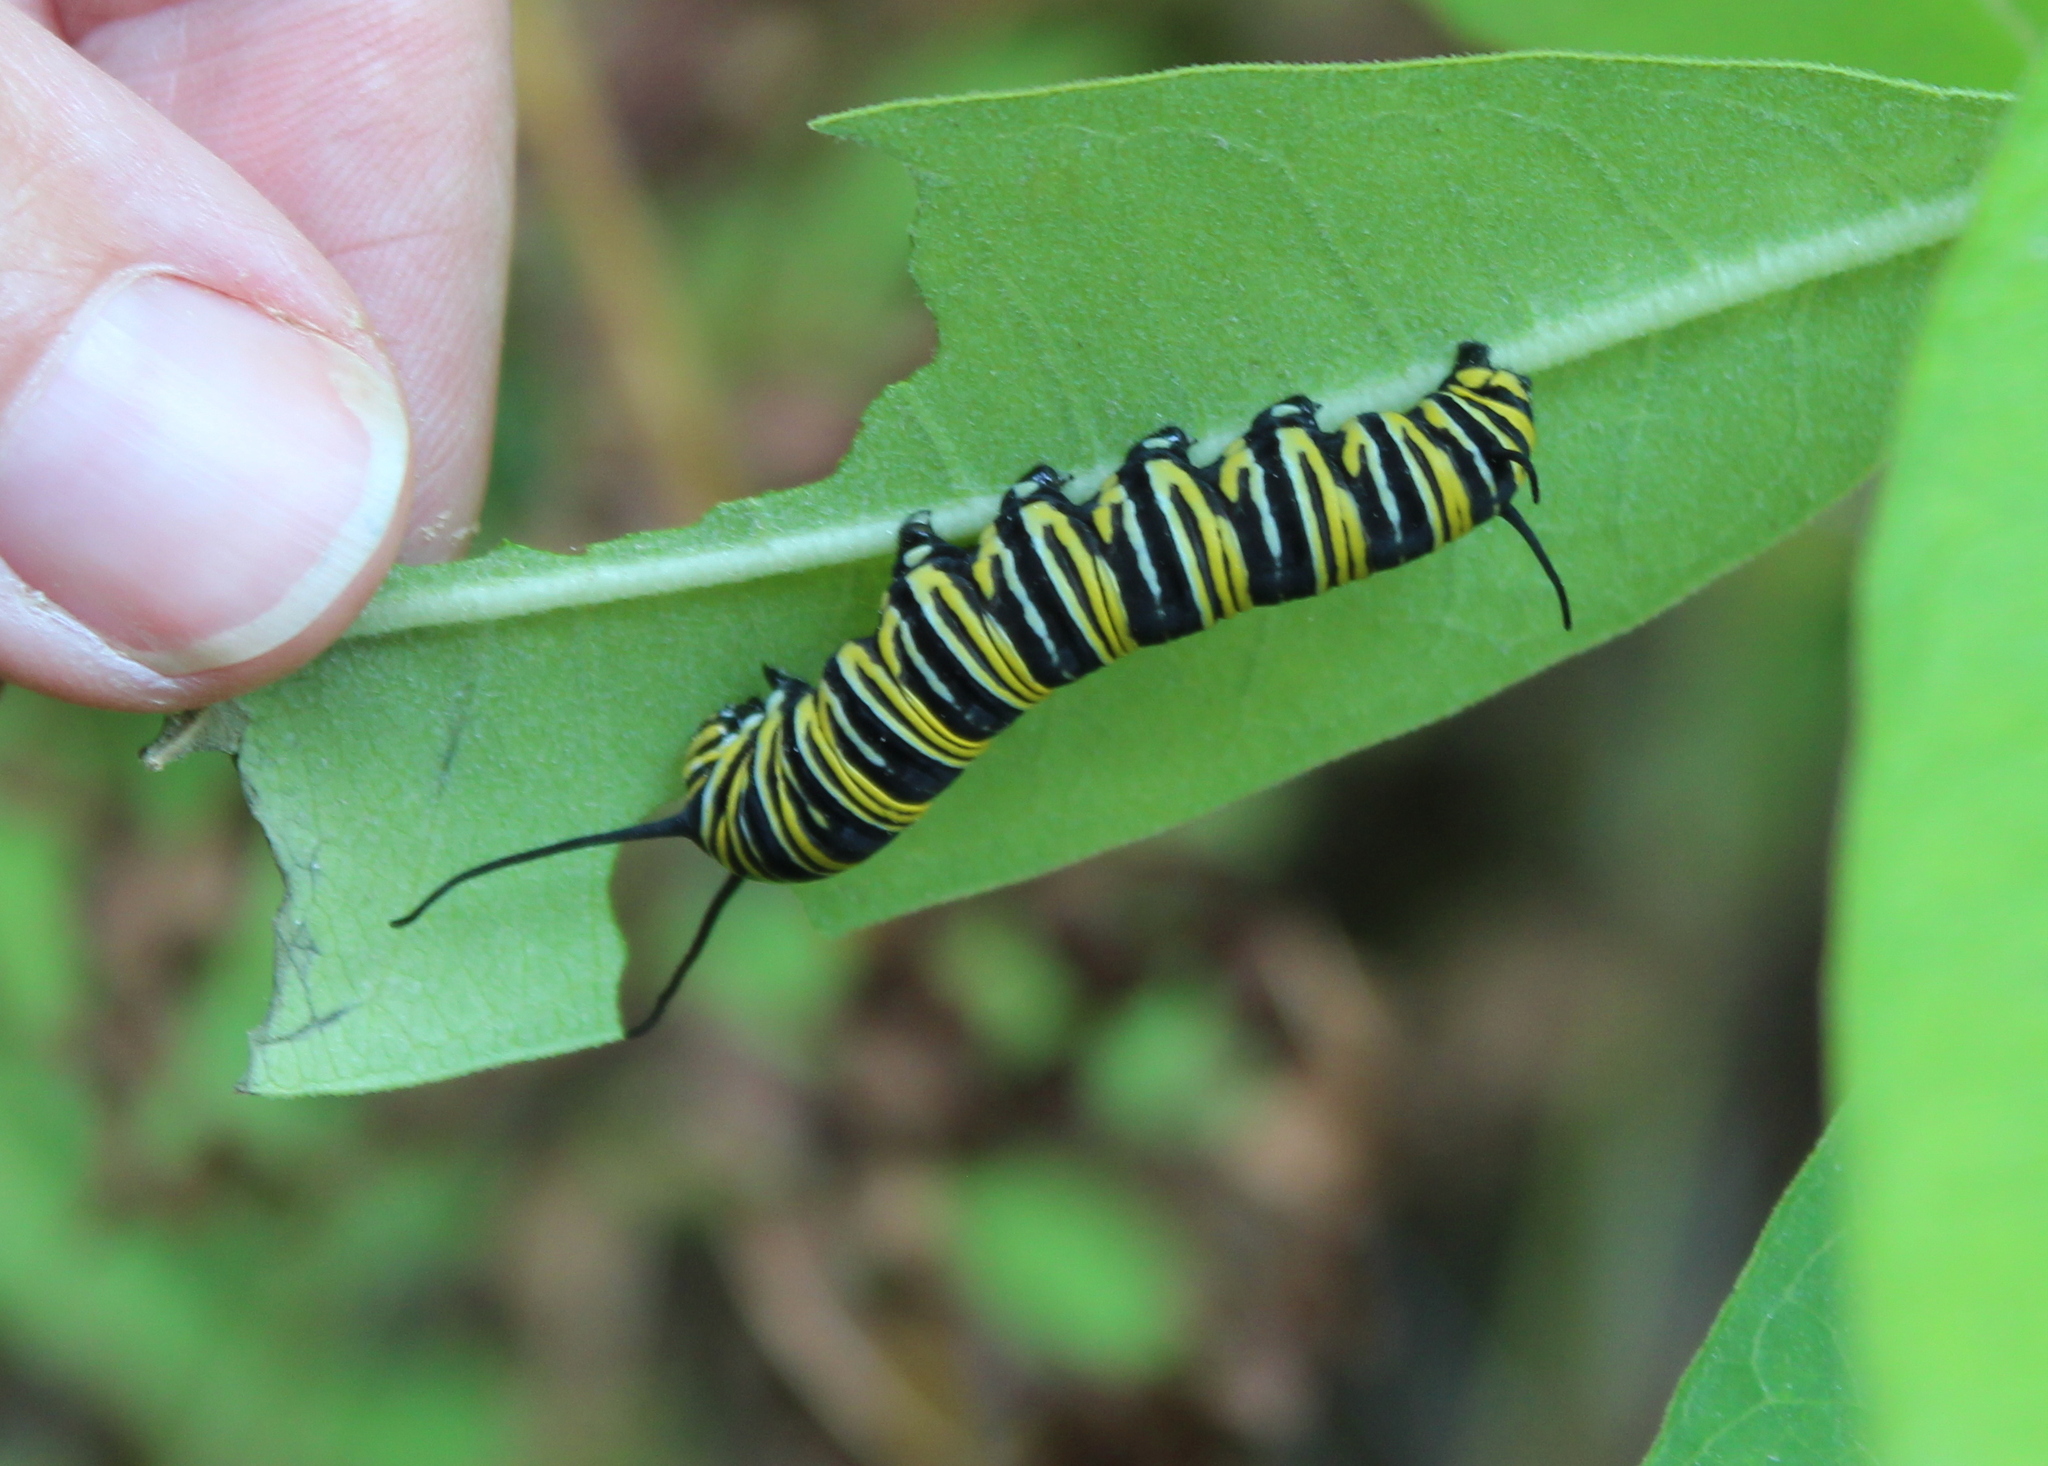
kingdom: Animalia
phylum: Arthropoda
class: Insecta
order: Lepidoptera
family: Nymphalidae
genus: Danaus
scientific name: Danaus plexippus
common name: Monarch
